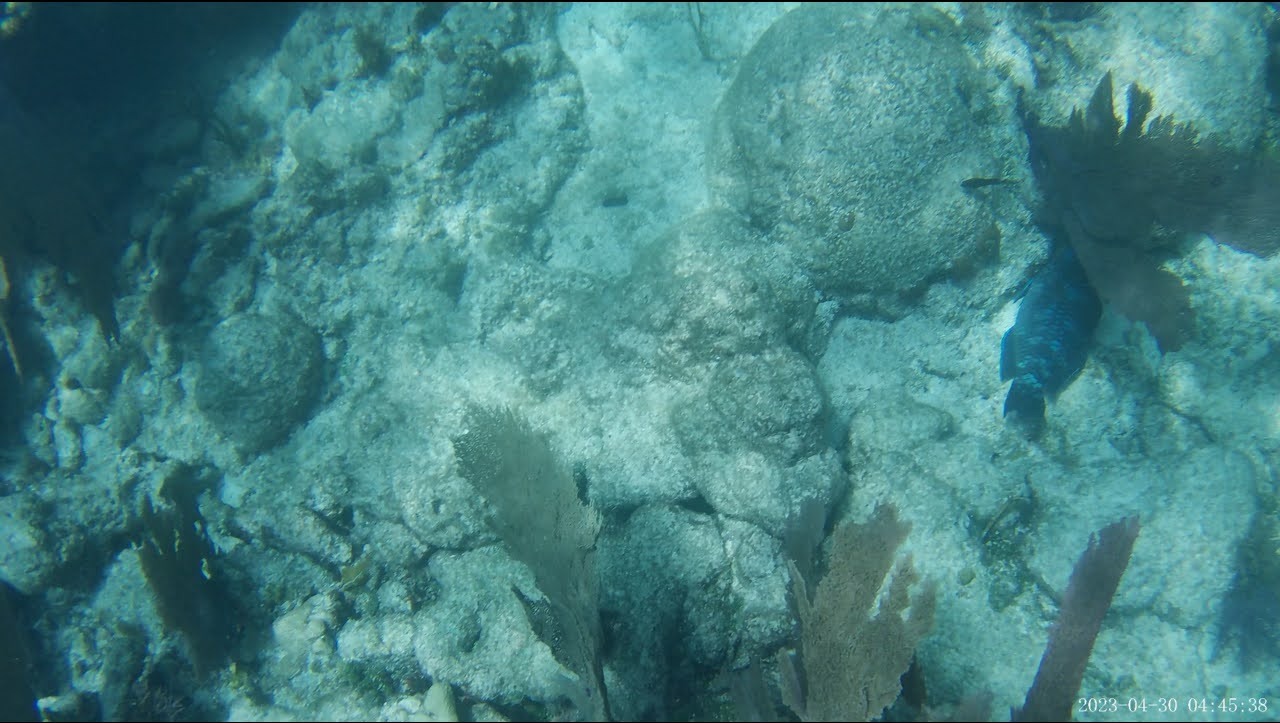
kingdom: Animalia
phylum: Chordata
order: Perciformes
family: Scaridae
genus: Scarus
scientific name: Scarus coelestinus
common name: Midnight parrotfish
